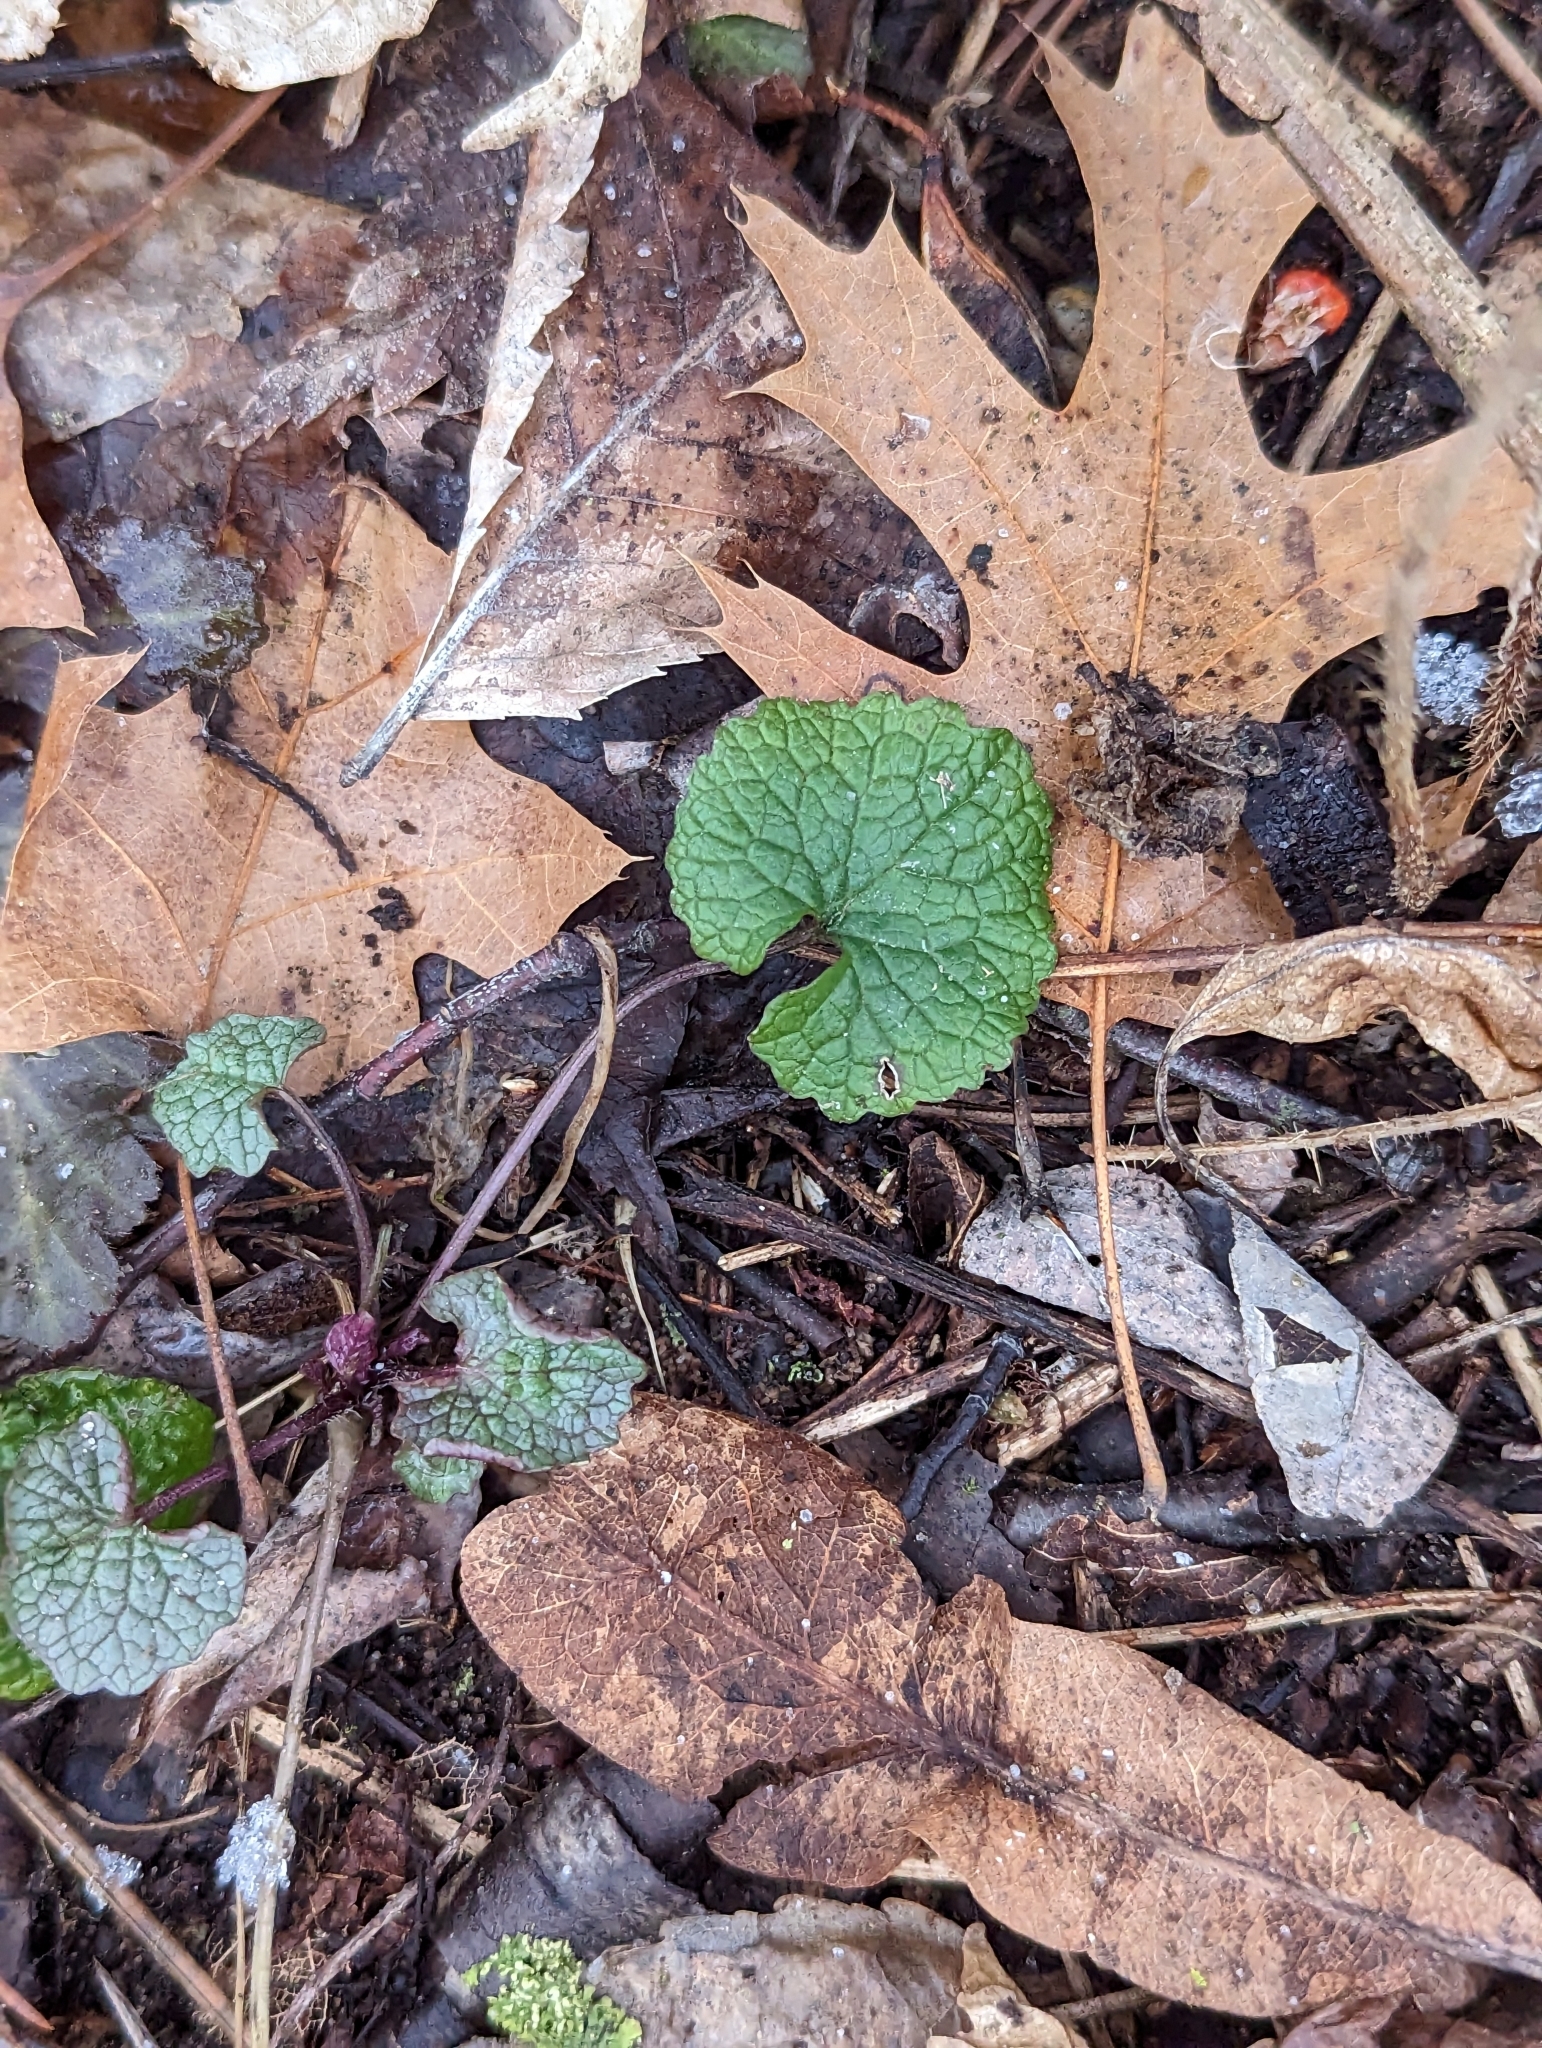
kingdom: Plantae
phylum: Tracheophyta
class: Magnoliopsida
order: Brassicales
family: Brassicaceae
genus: Alliaria
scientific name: Alliaria petiolata
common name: Garlic mustard
